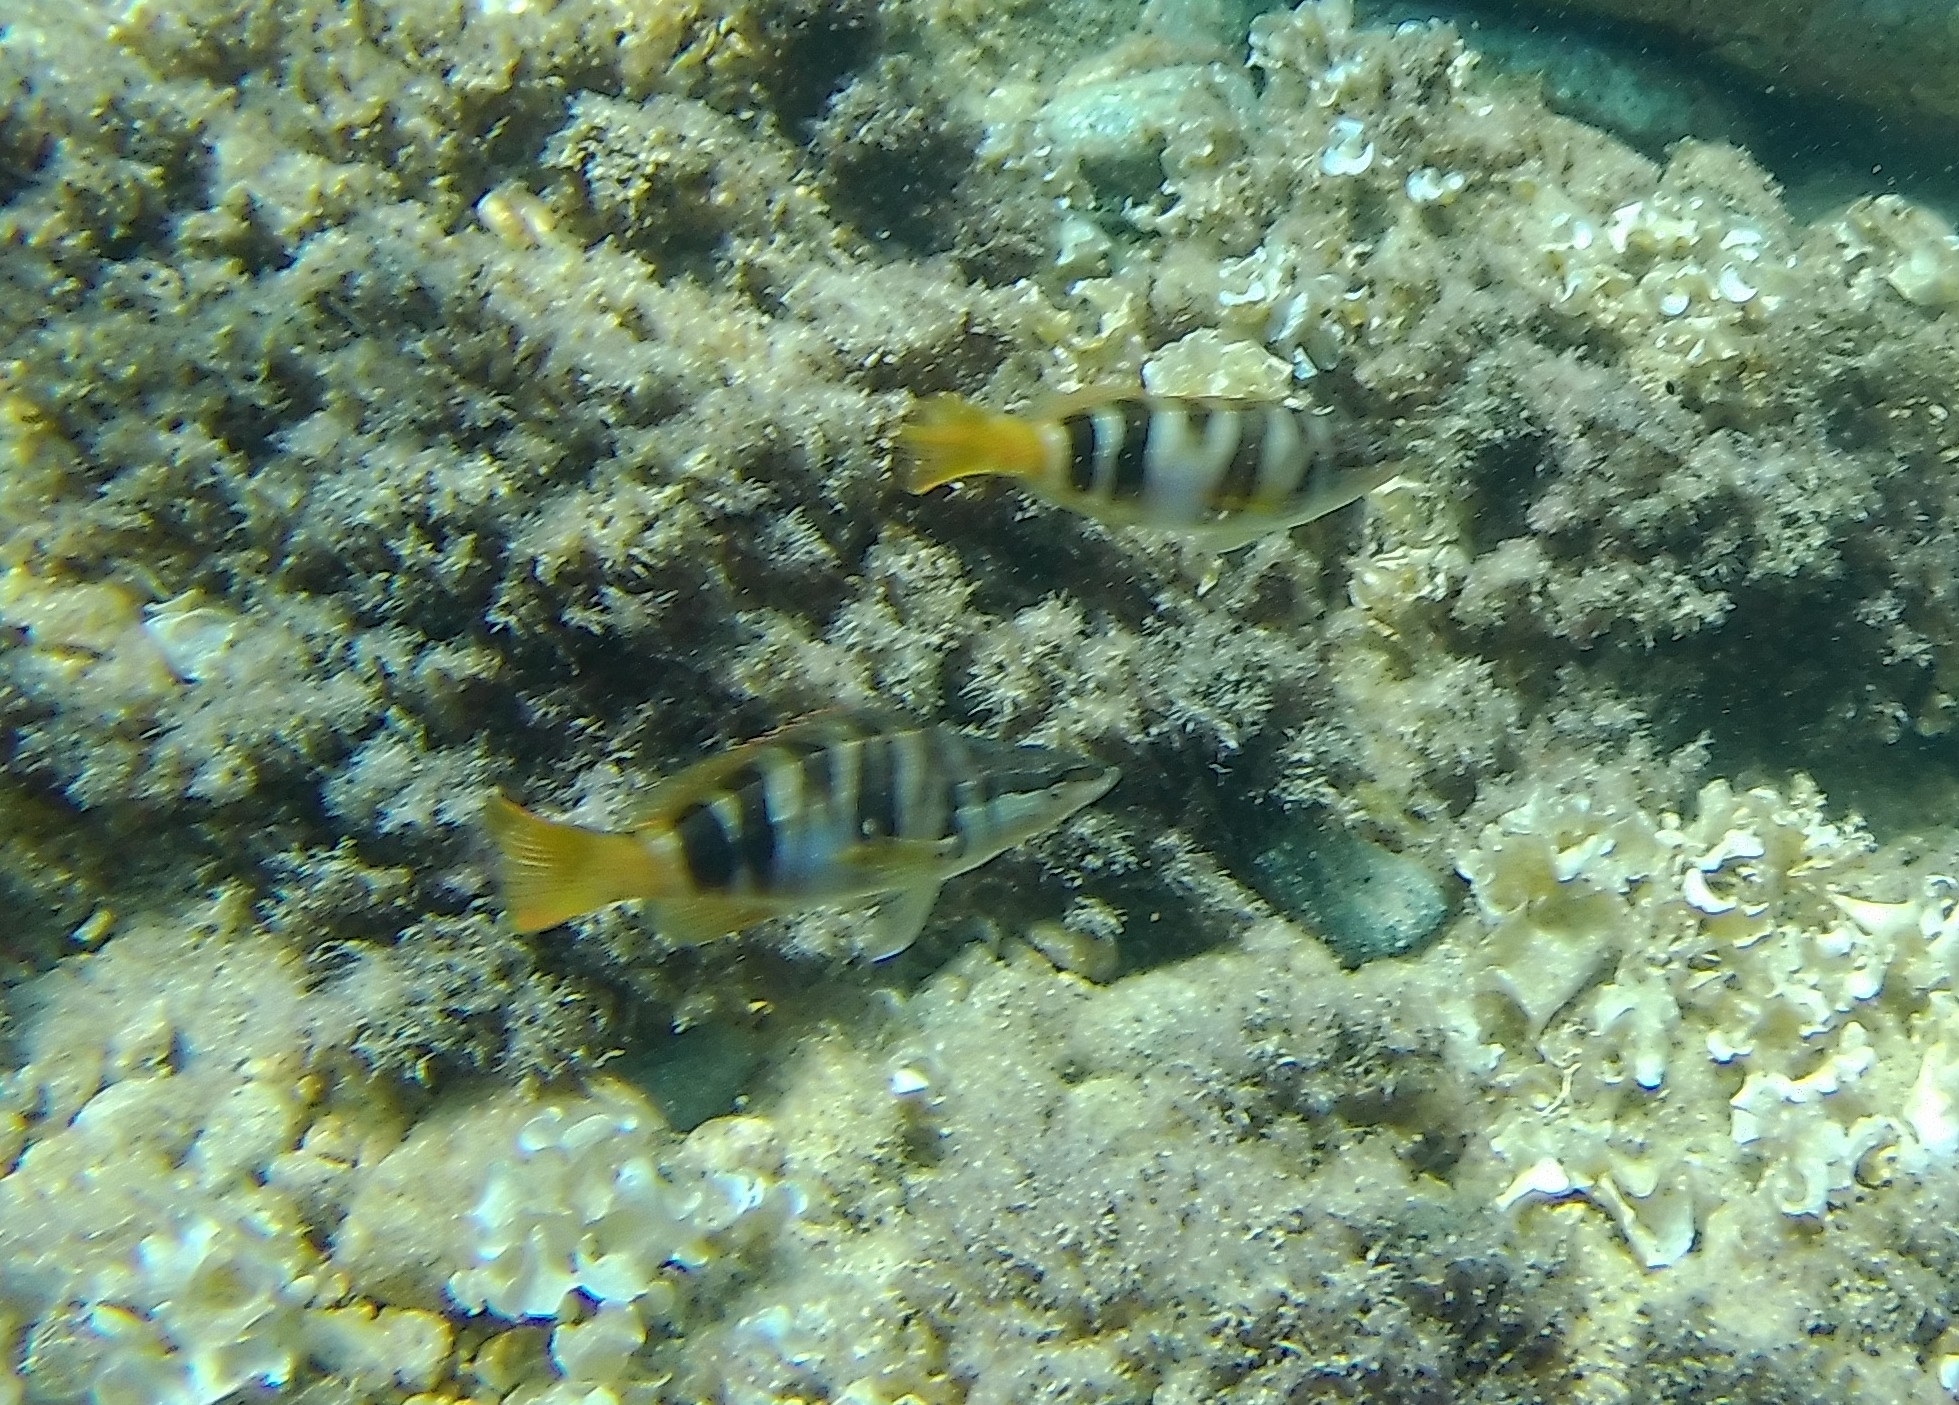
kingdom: Animalia
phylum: Chordata
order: Perciformes
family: Serranidae
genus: Serranus
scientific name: Serranus scriba
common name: Painted comber
